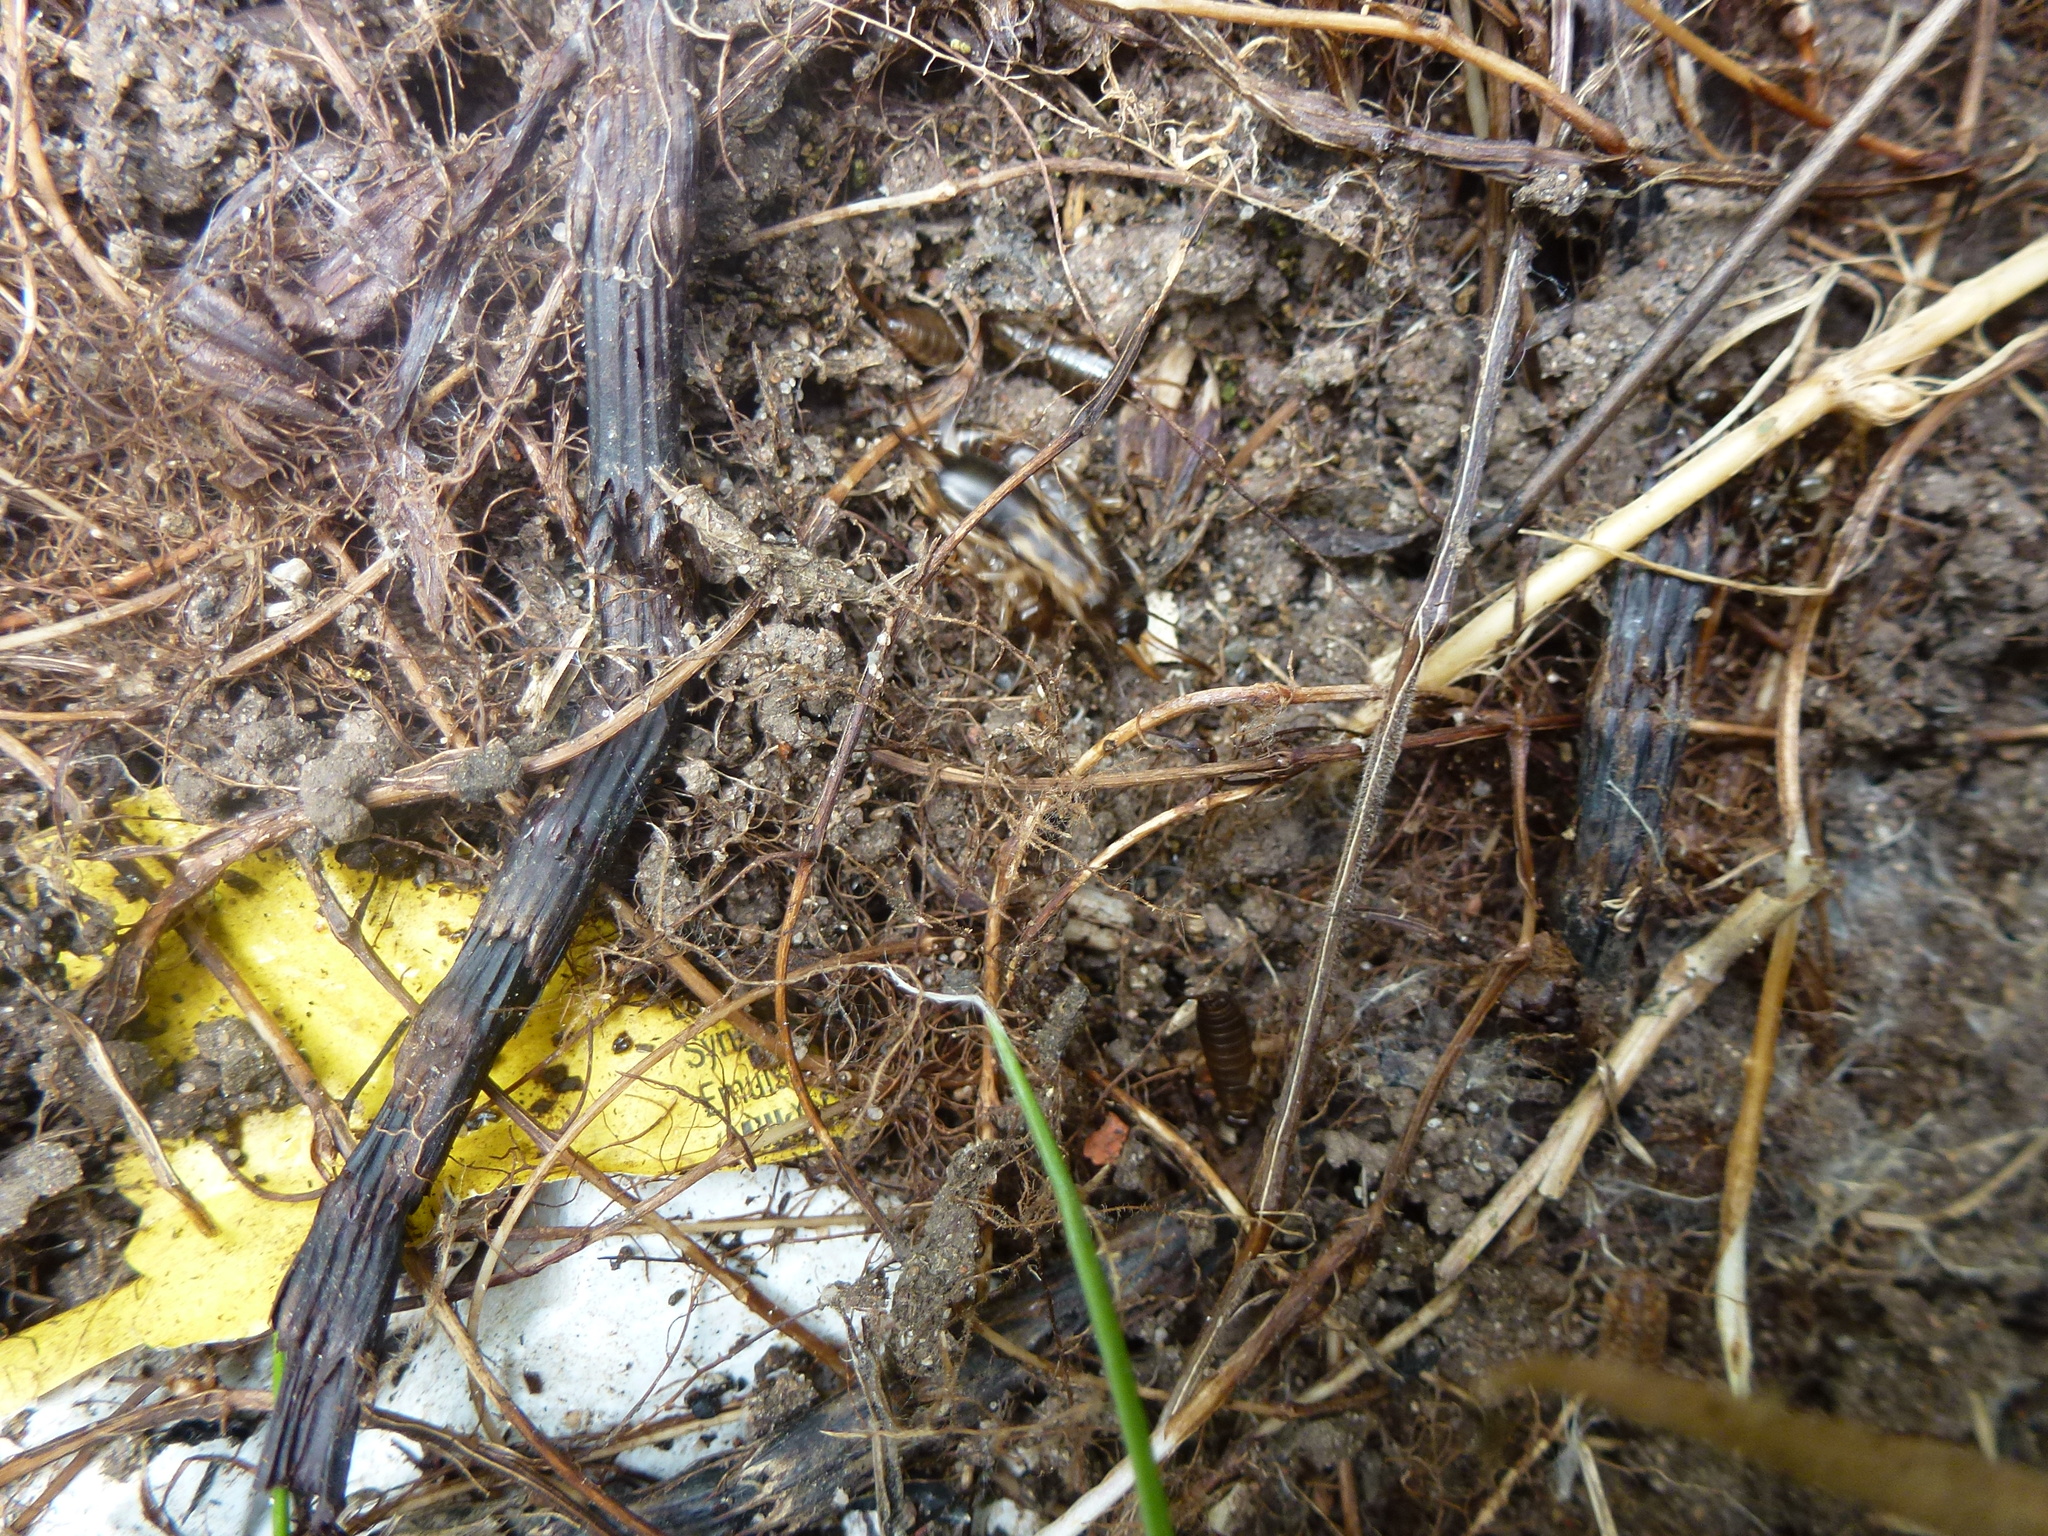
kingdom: Animalia
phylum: Arthropoda
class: Insecta
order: Dermaptera
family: Forficulidae
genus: Forficula
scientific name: Forficula
